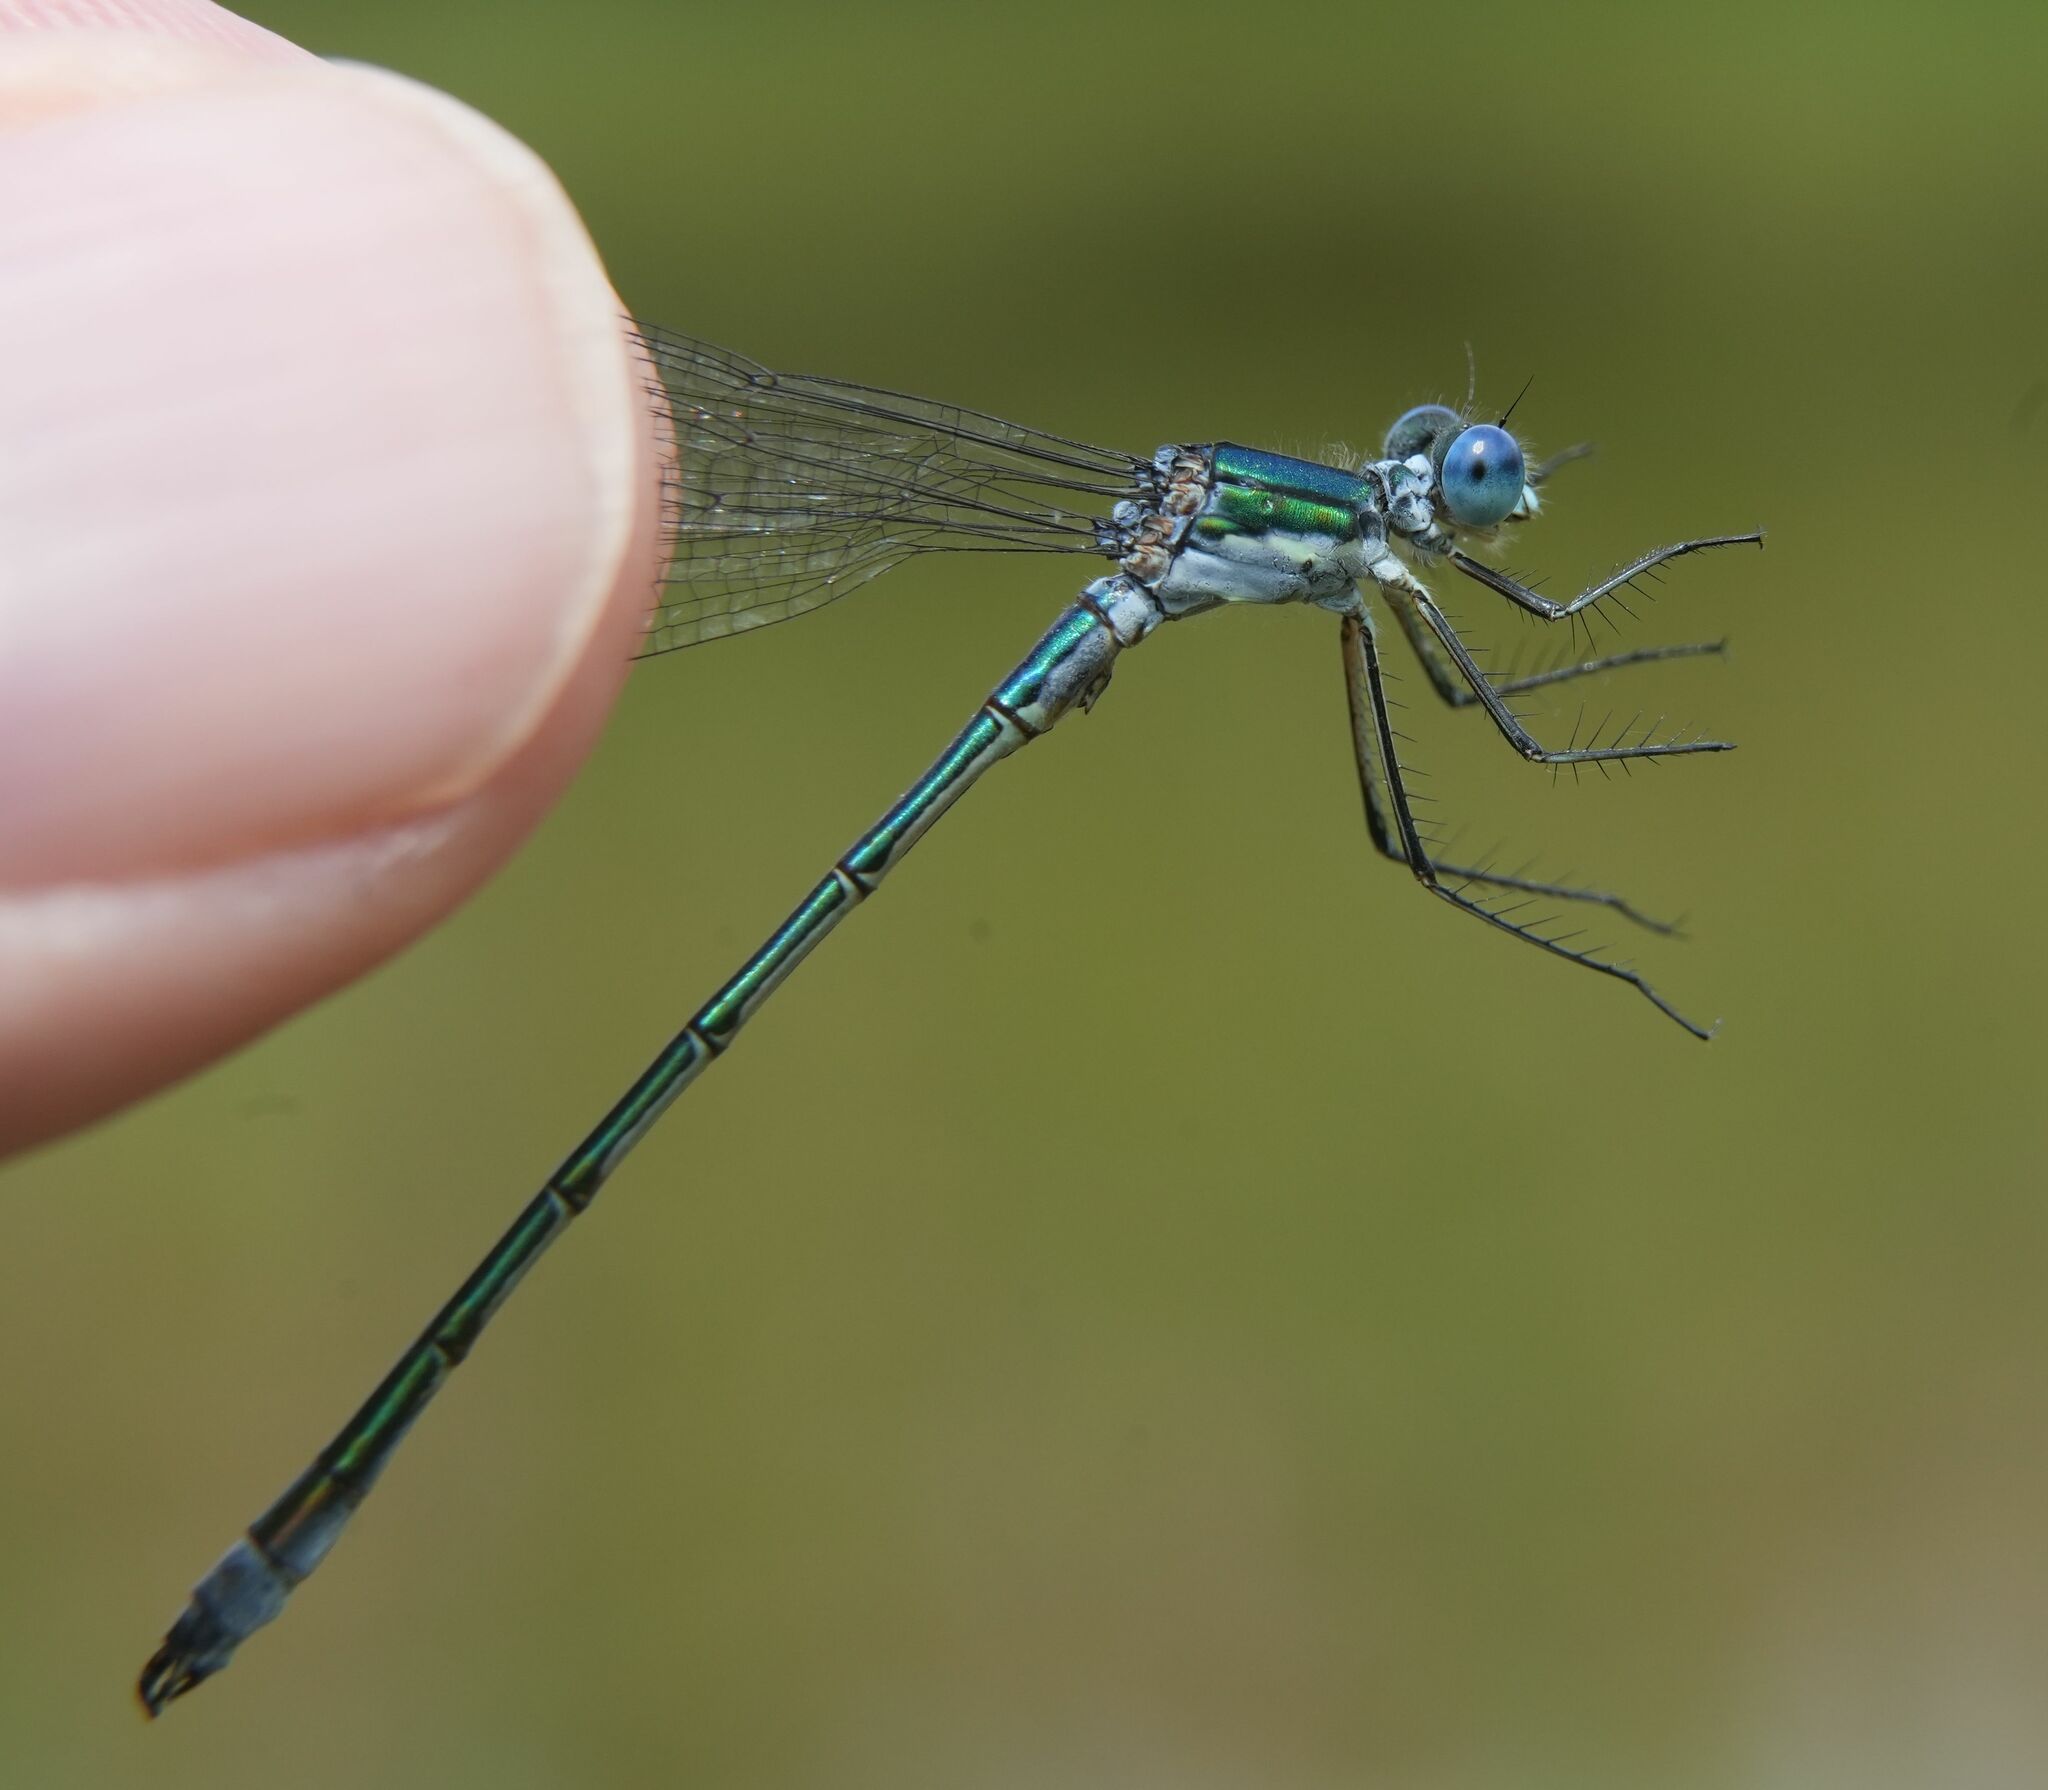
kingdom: Animalia
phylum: Arthropoda
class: Insecta
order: Odonata
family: Lestidae
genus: Lestes
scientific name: Lestes dryas
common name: Scarce emerald damselfly
